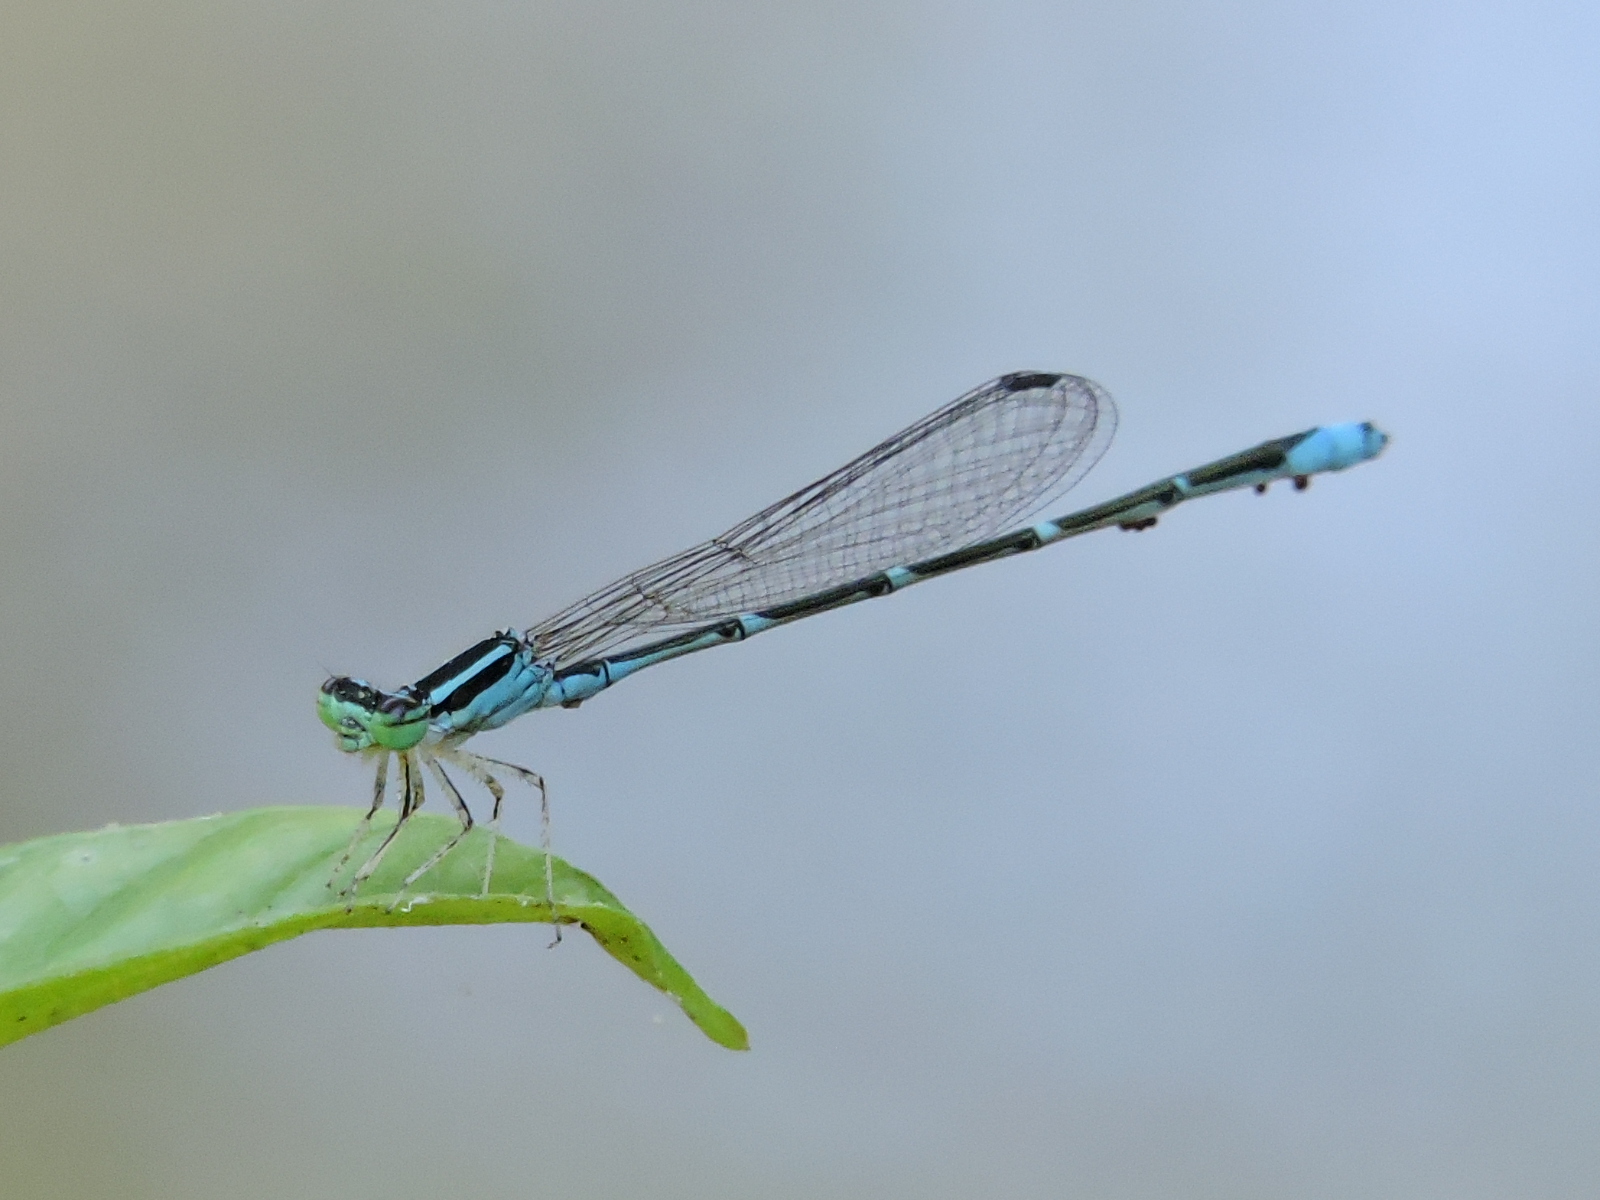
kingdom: Animalia
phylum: Arthropoda
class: Insecta
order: Odonata
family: Coenagrionidae
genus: Enallagma
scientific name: Enallagma exsulans
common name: Stream bluet
